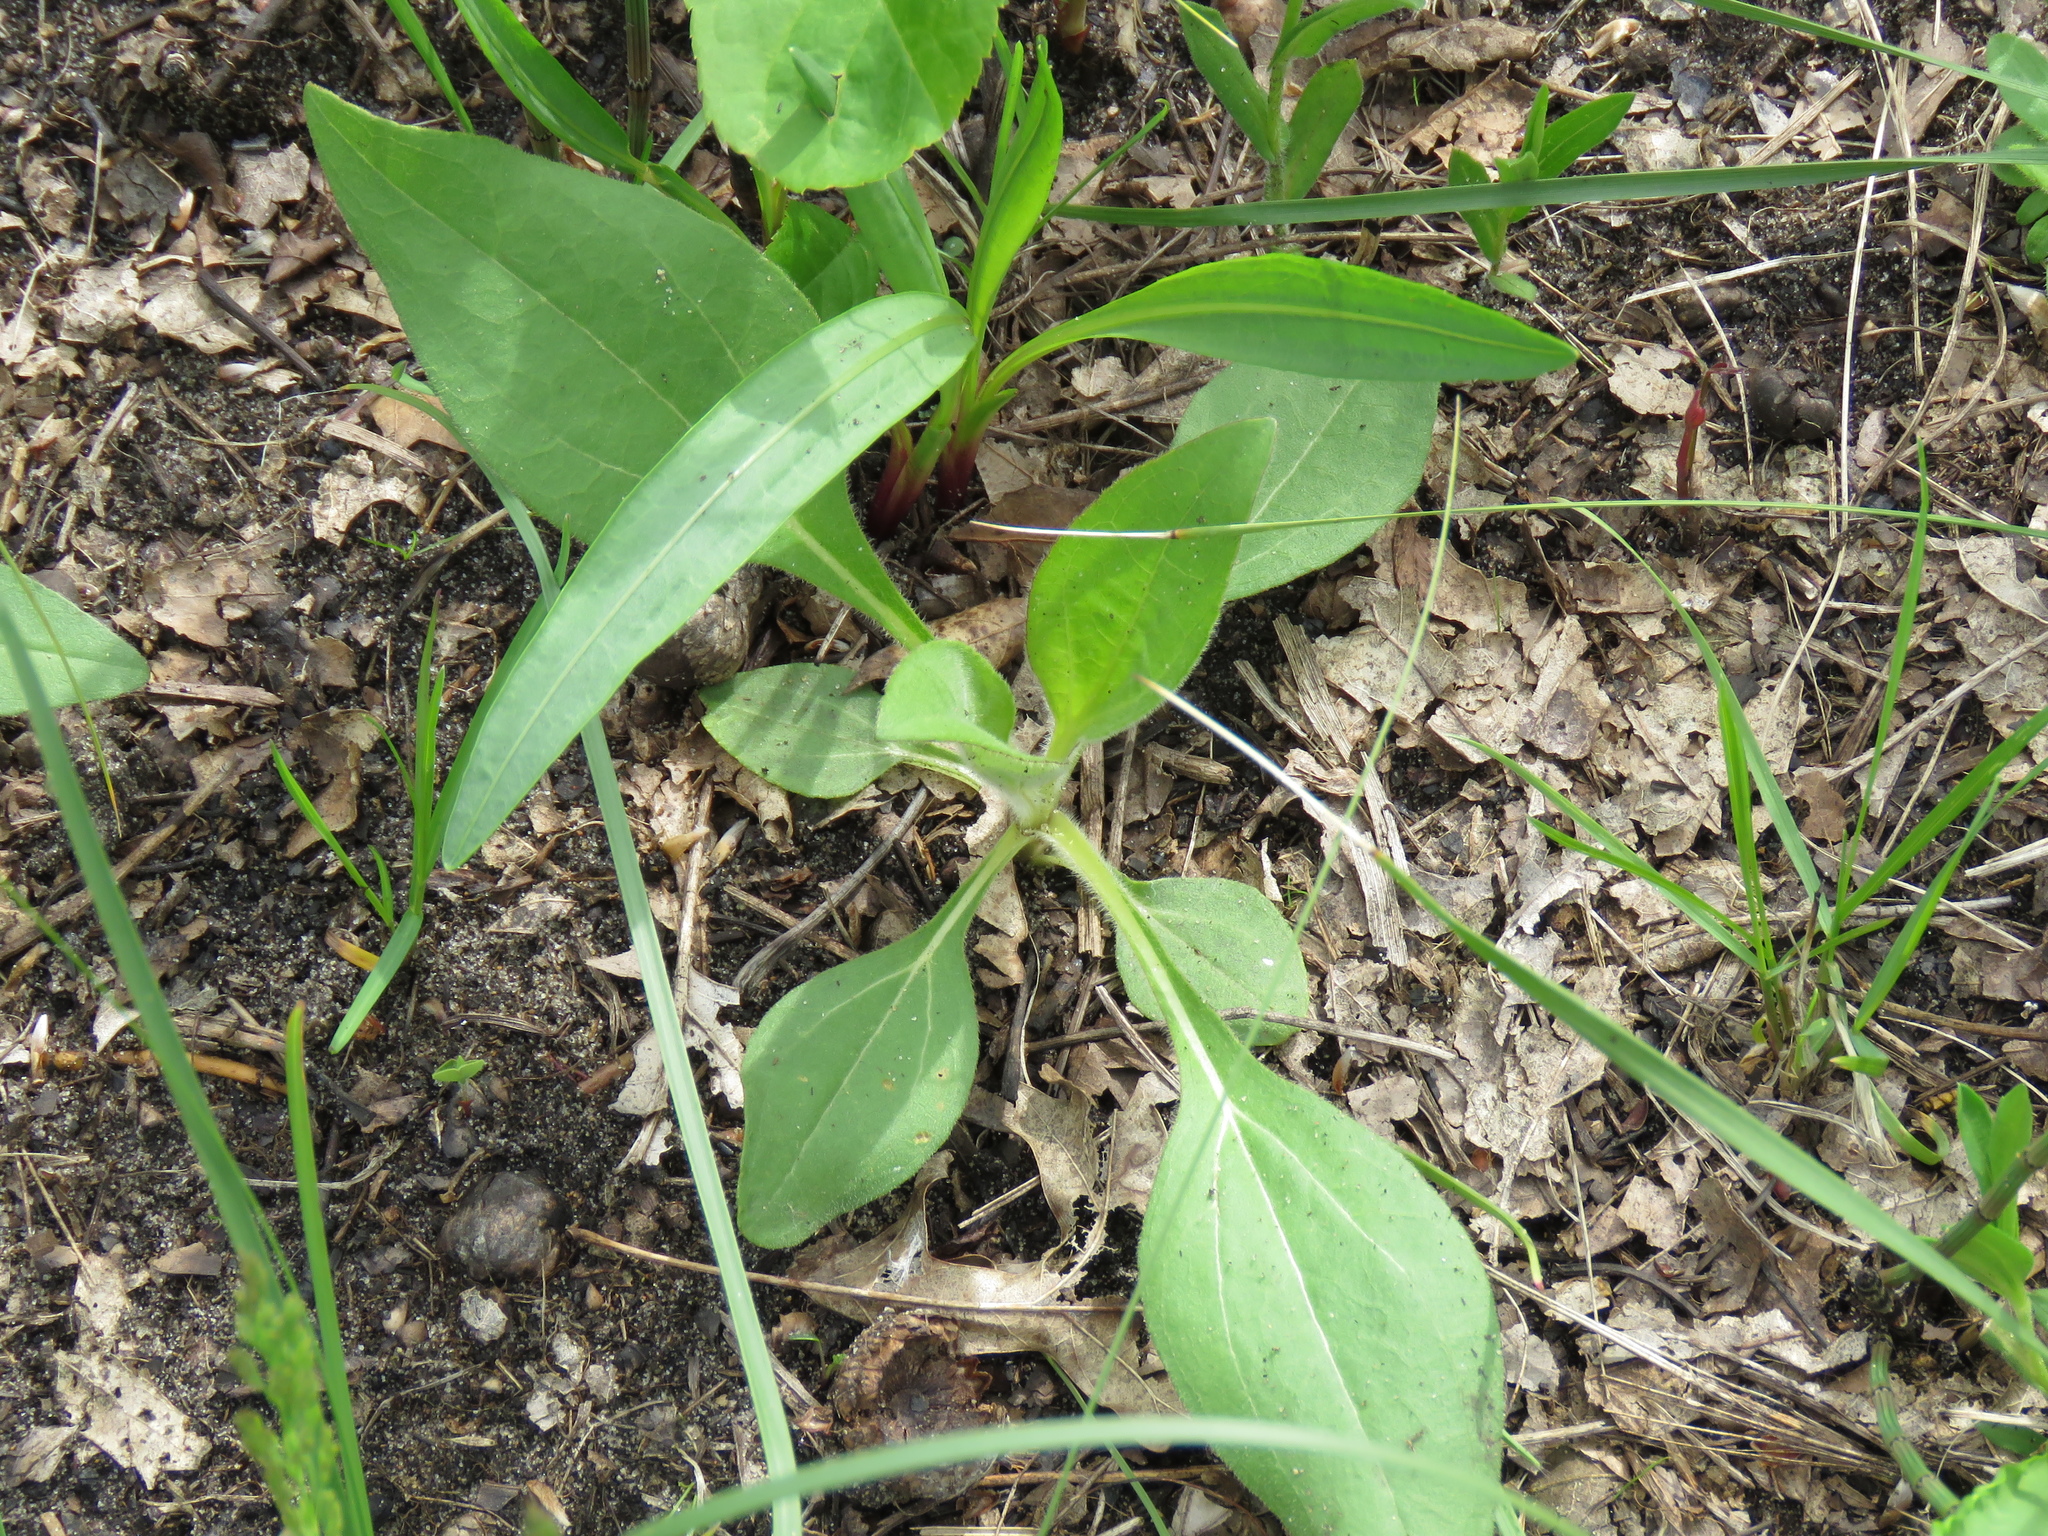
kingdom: Plantae
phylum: Tracheophyta
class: Magnoliopsida
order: Asterales
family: Asteraceae
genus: Helianthus
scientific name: Helianthus occidentalis
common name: Western sunflower
